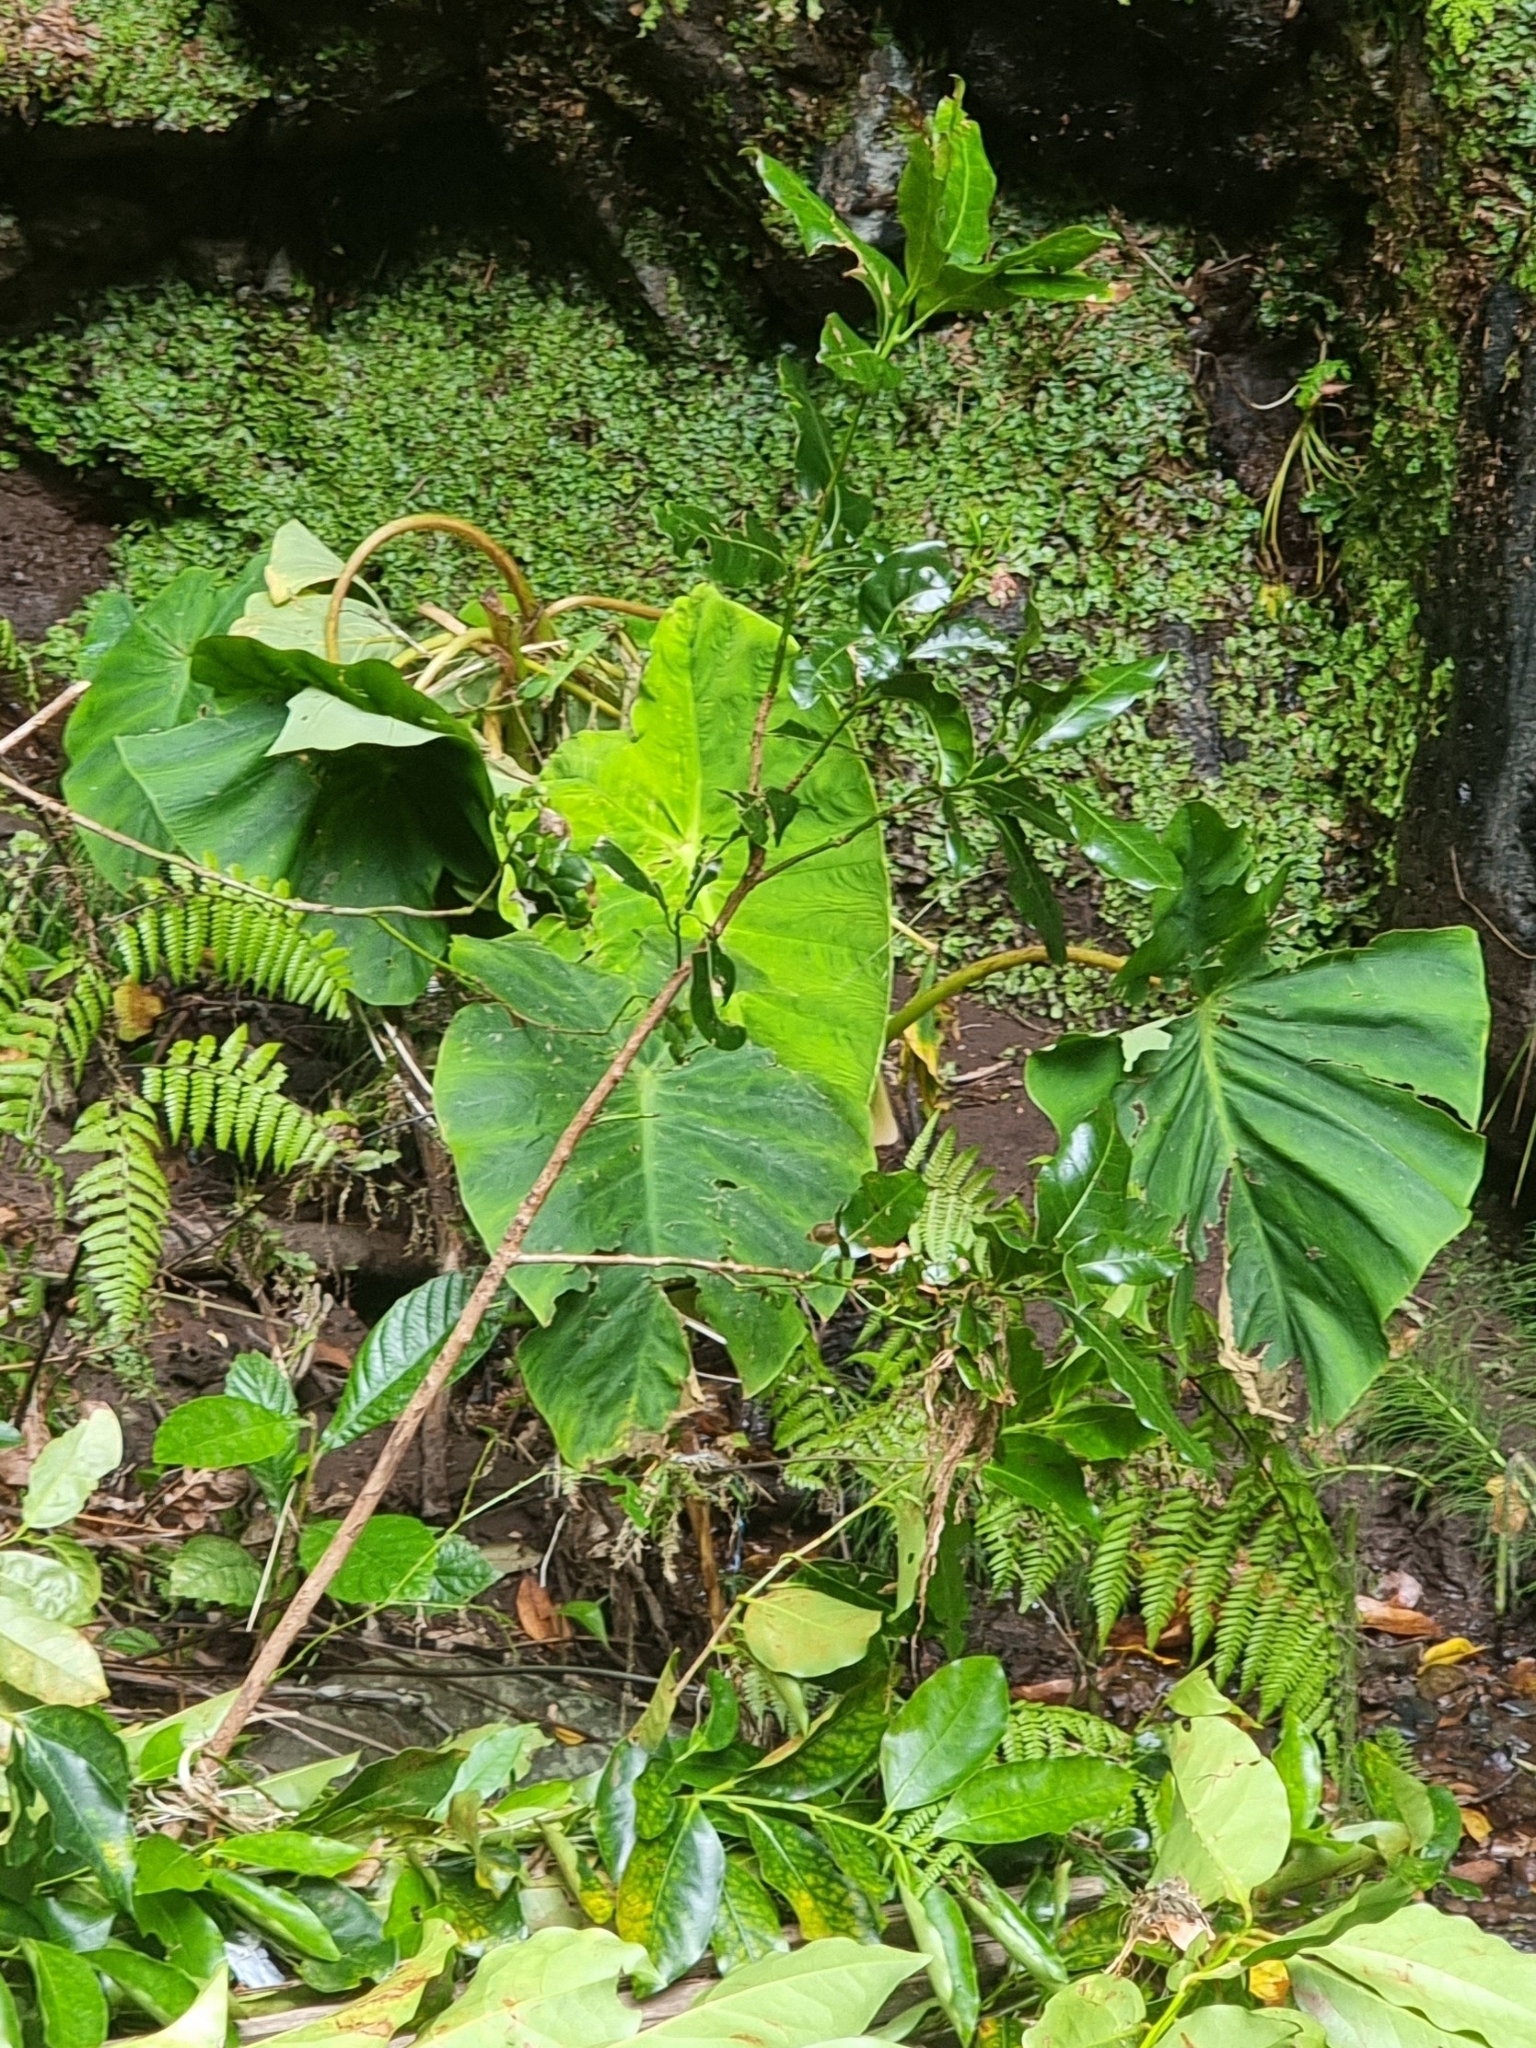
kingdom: Plantae
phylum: Tracheophyta
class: Liliopsida
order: Alismatales
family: Araceae
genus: Colocasia
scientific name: Colocasia esculenta
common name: Taro
